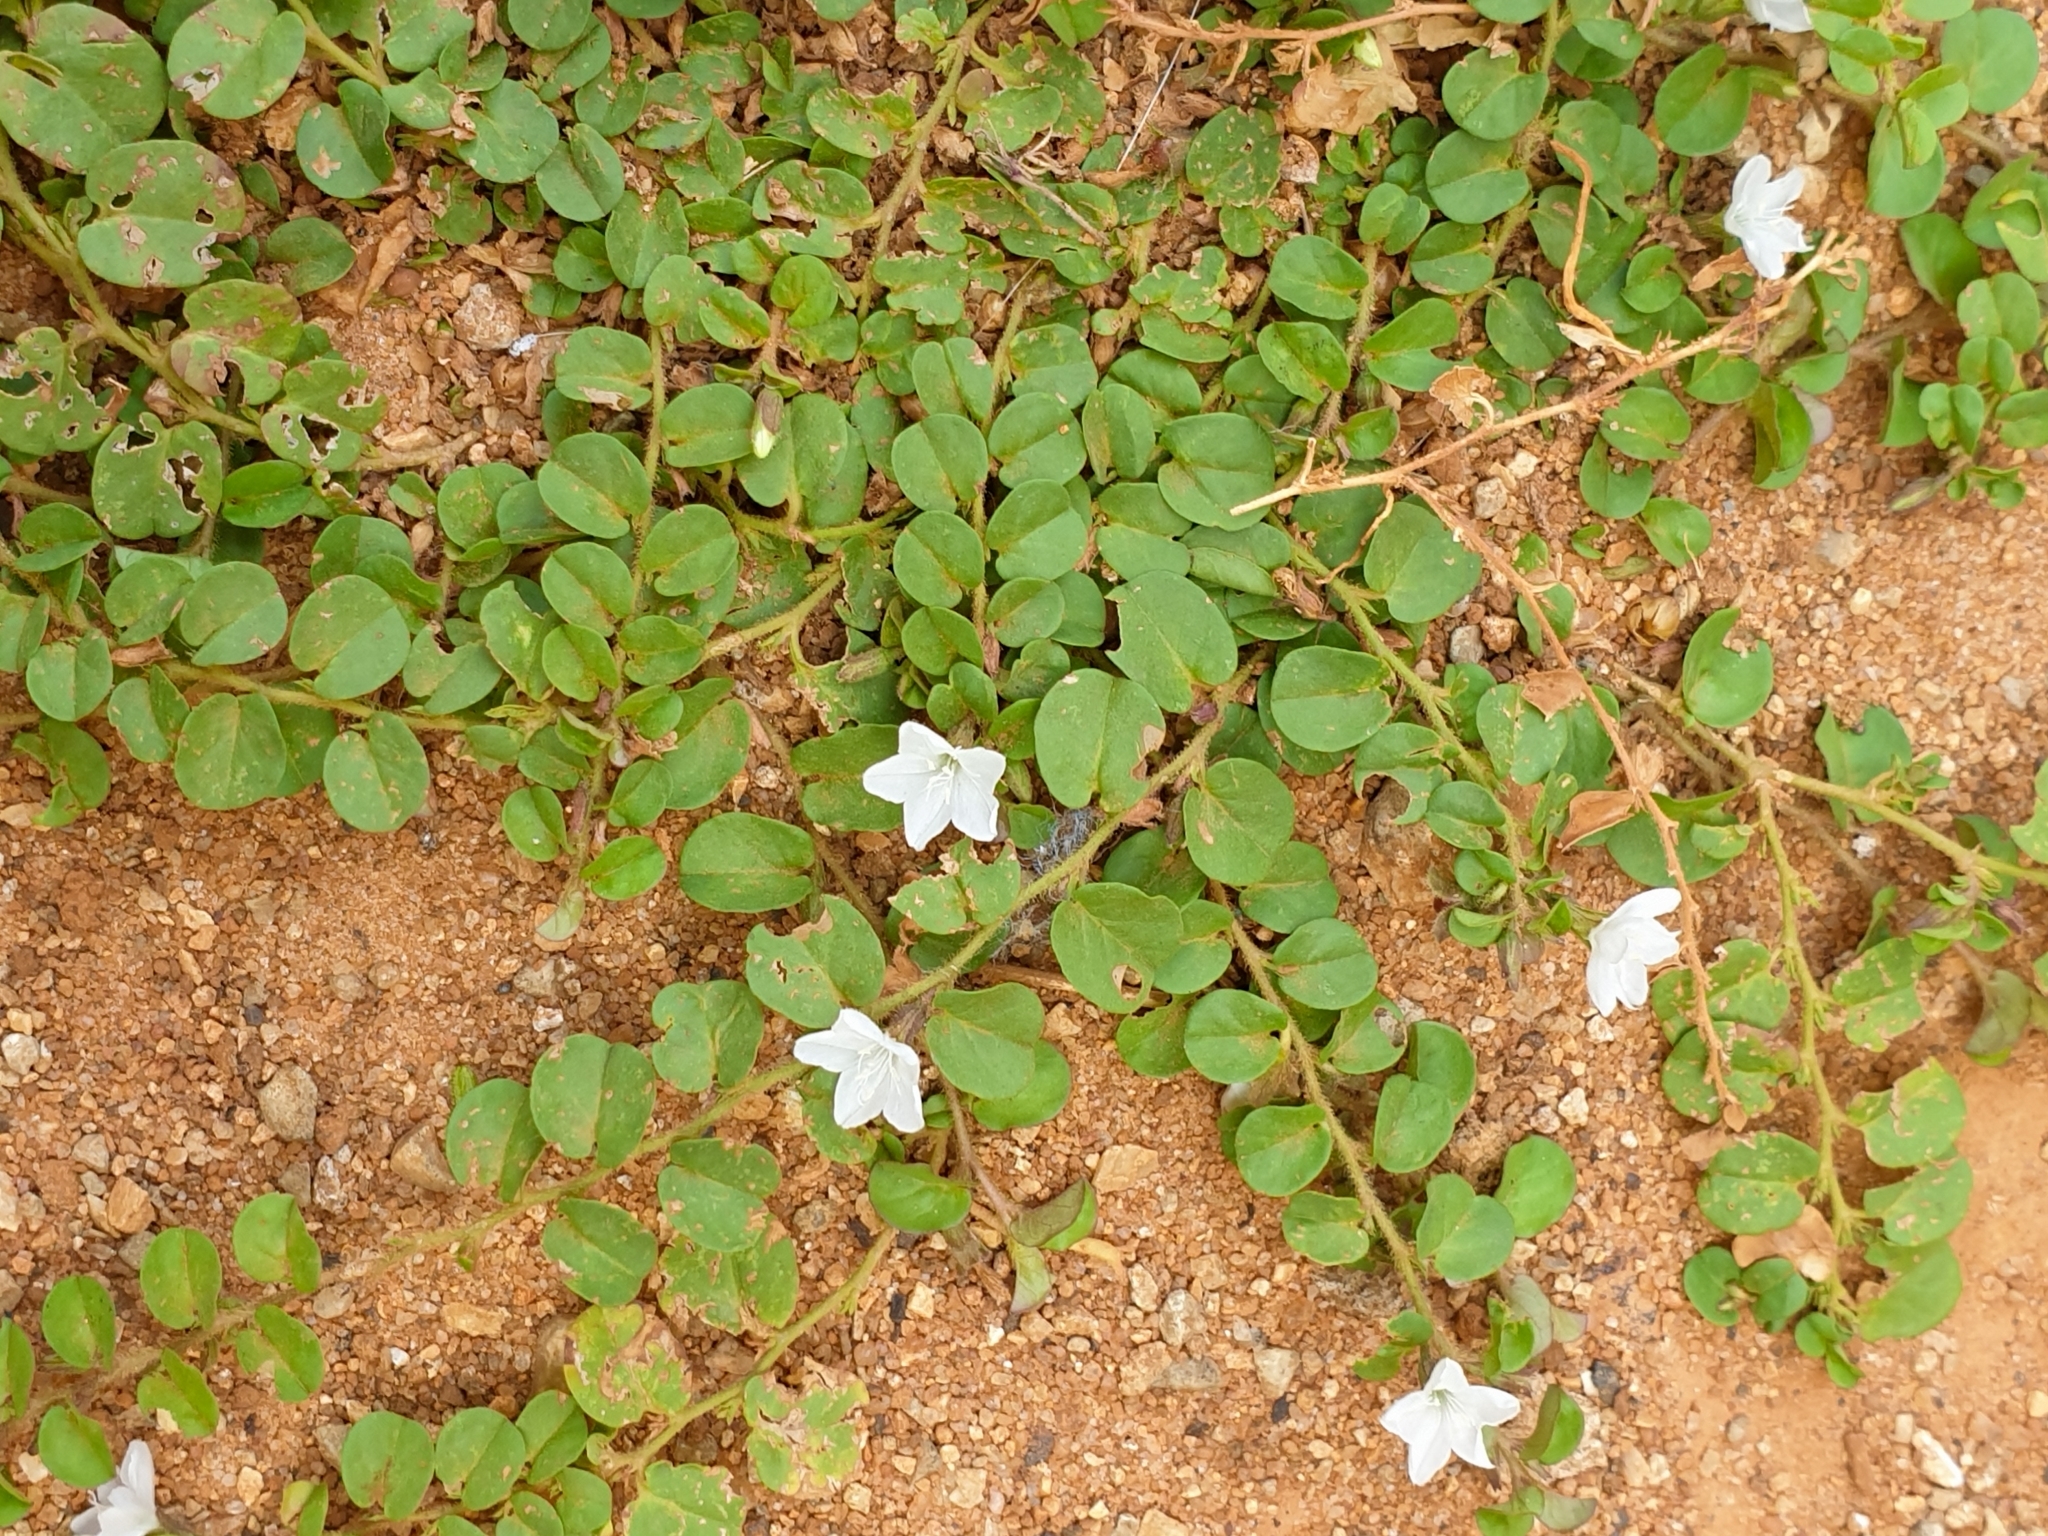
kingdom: Plantae
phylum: Tracheophyta
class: Magnoliopsida
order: Solanales
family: Convolvulaceae
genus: Evolvulus
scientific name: Evolvulus nummularius
